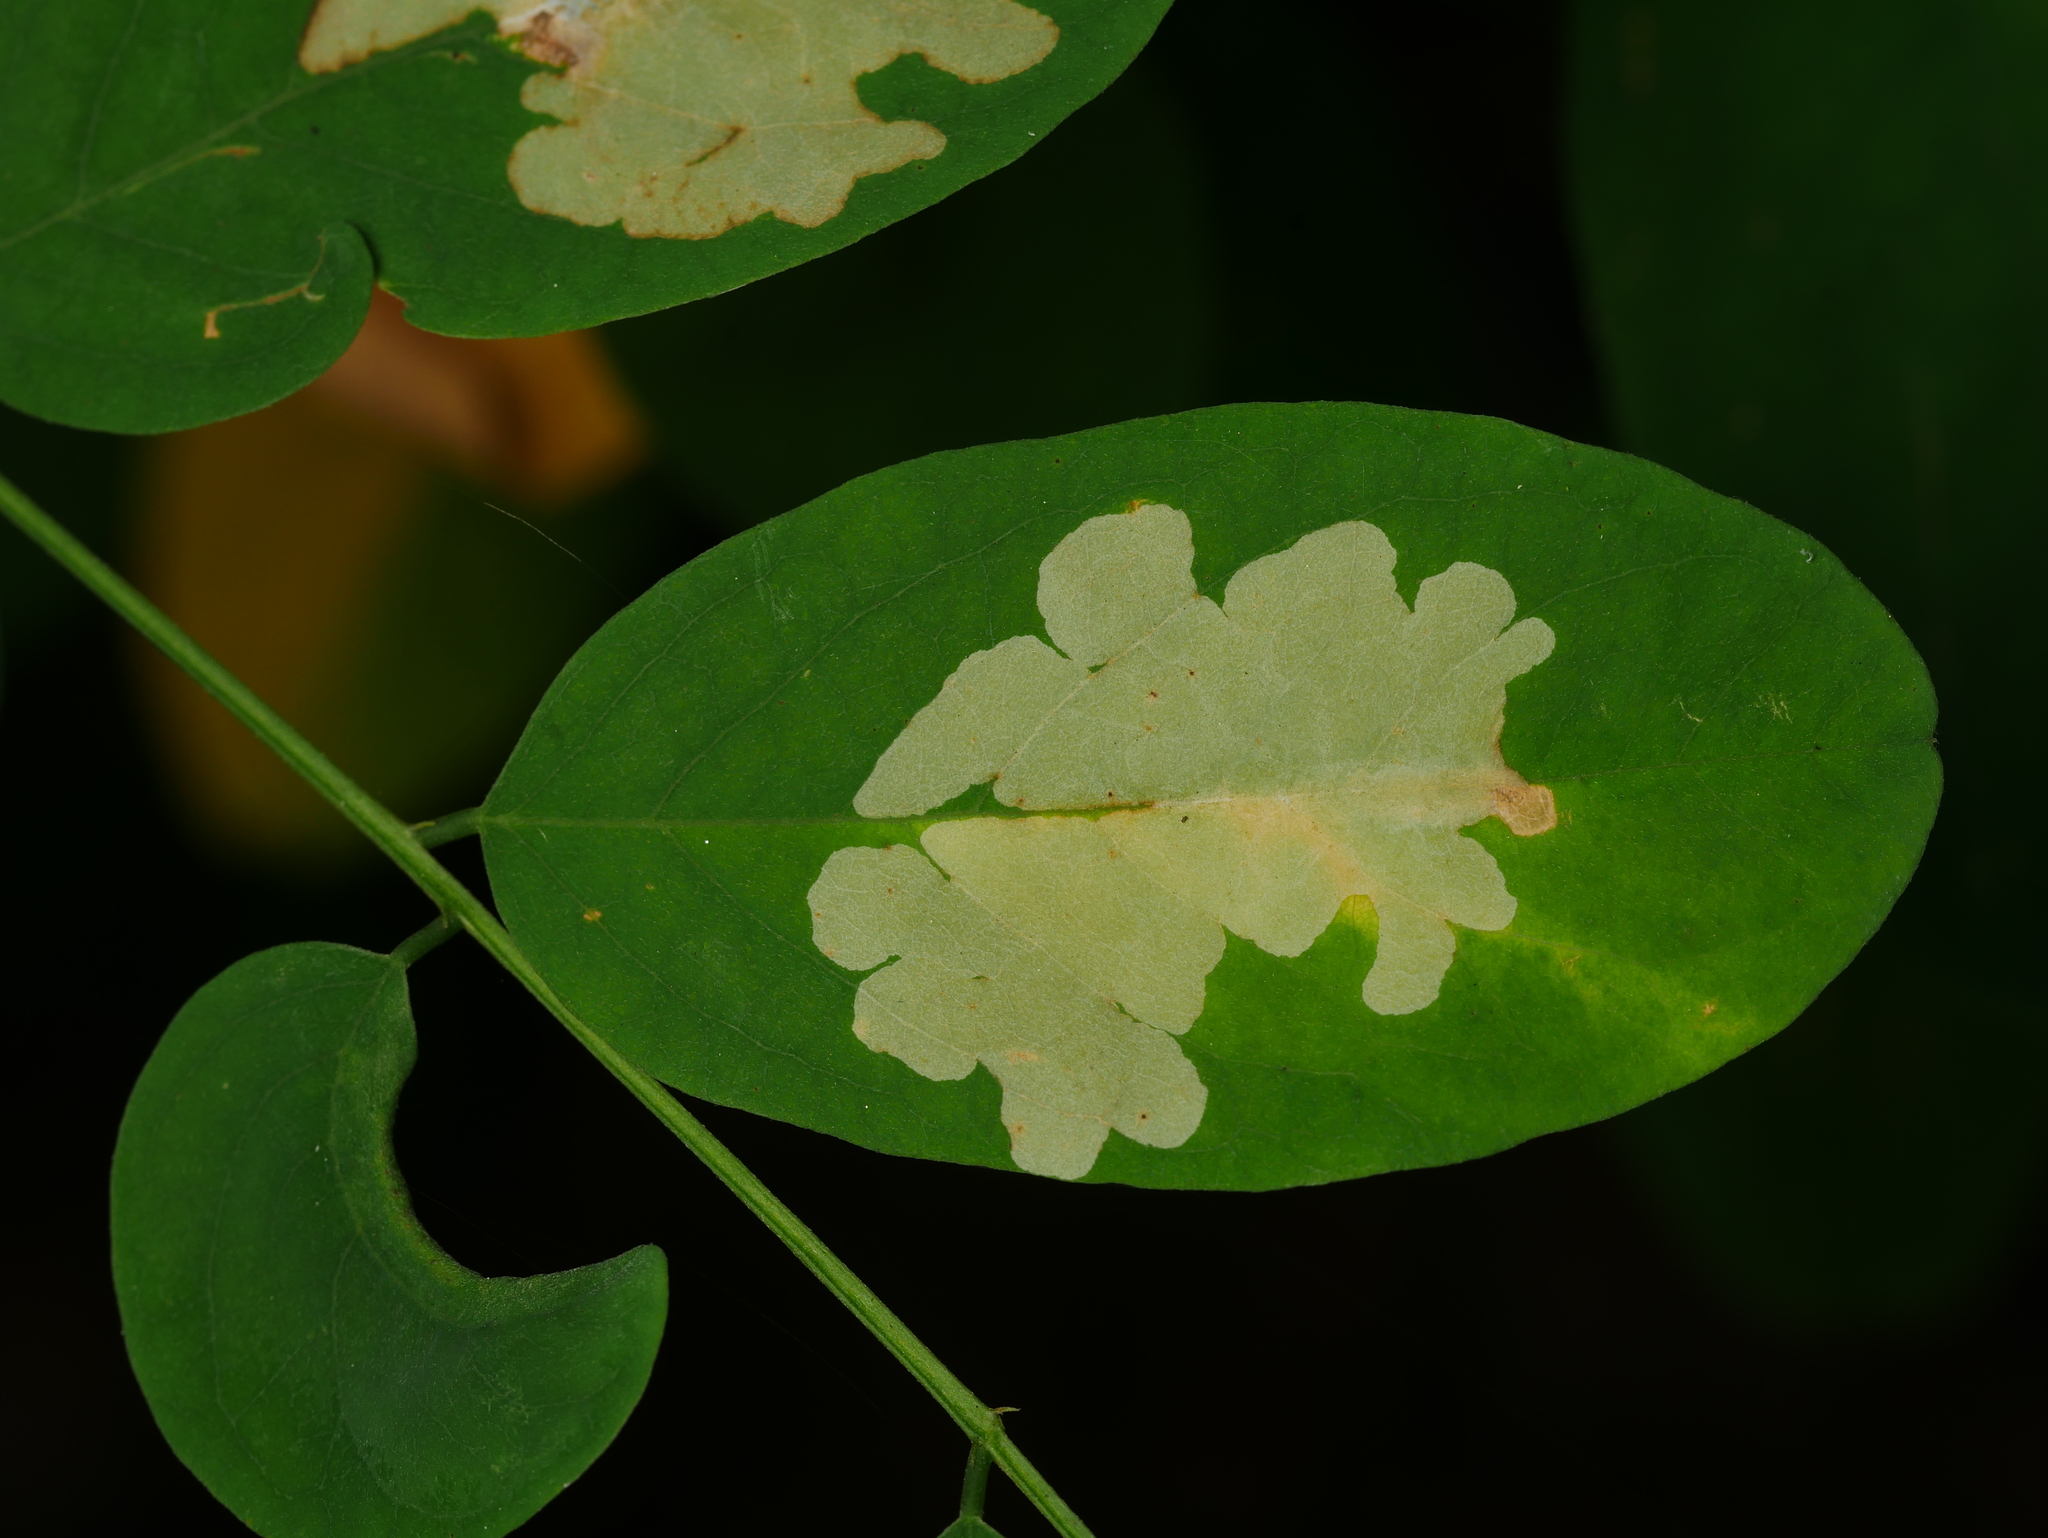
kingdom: Animalia
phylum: Arthropoda
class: Insecta
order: Lepidoptera
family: Gracillariidae
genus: Parectopa
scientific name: Parectopa robiniella
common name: Locust digitate leafminer
